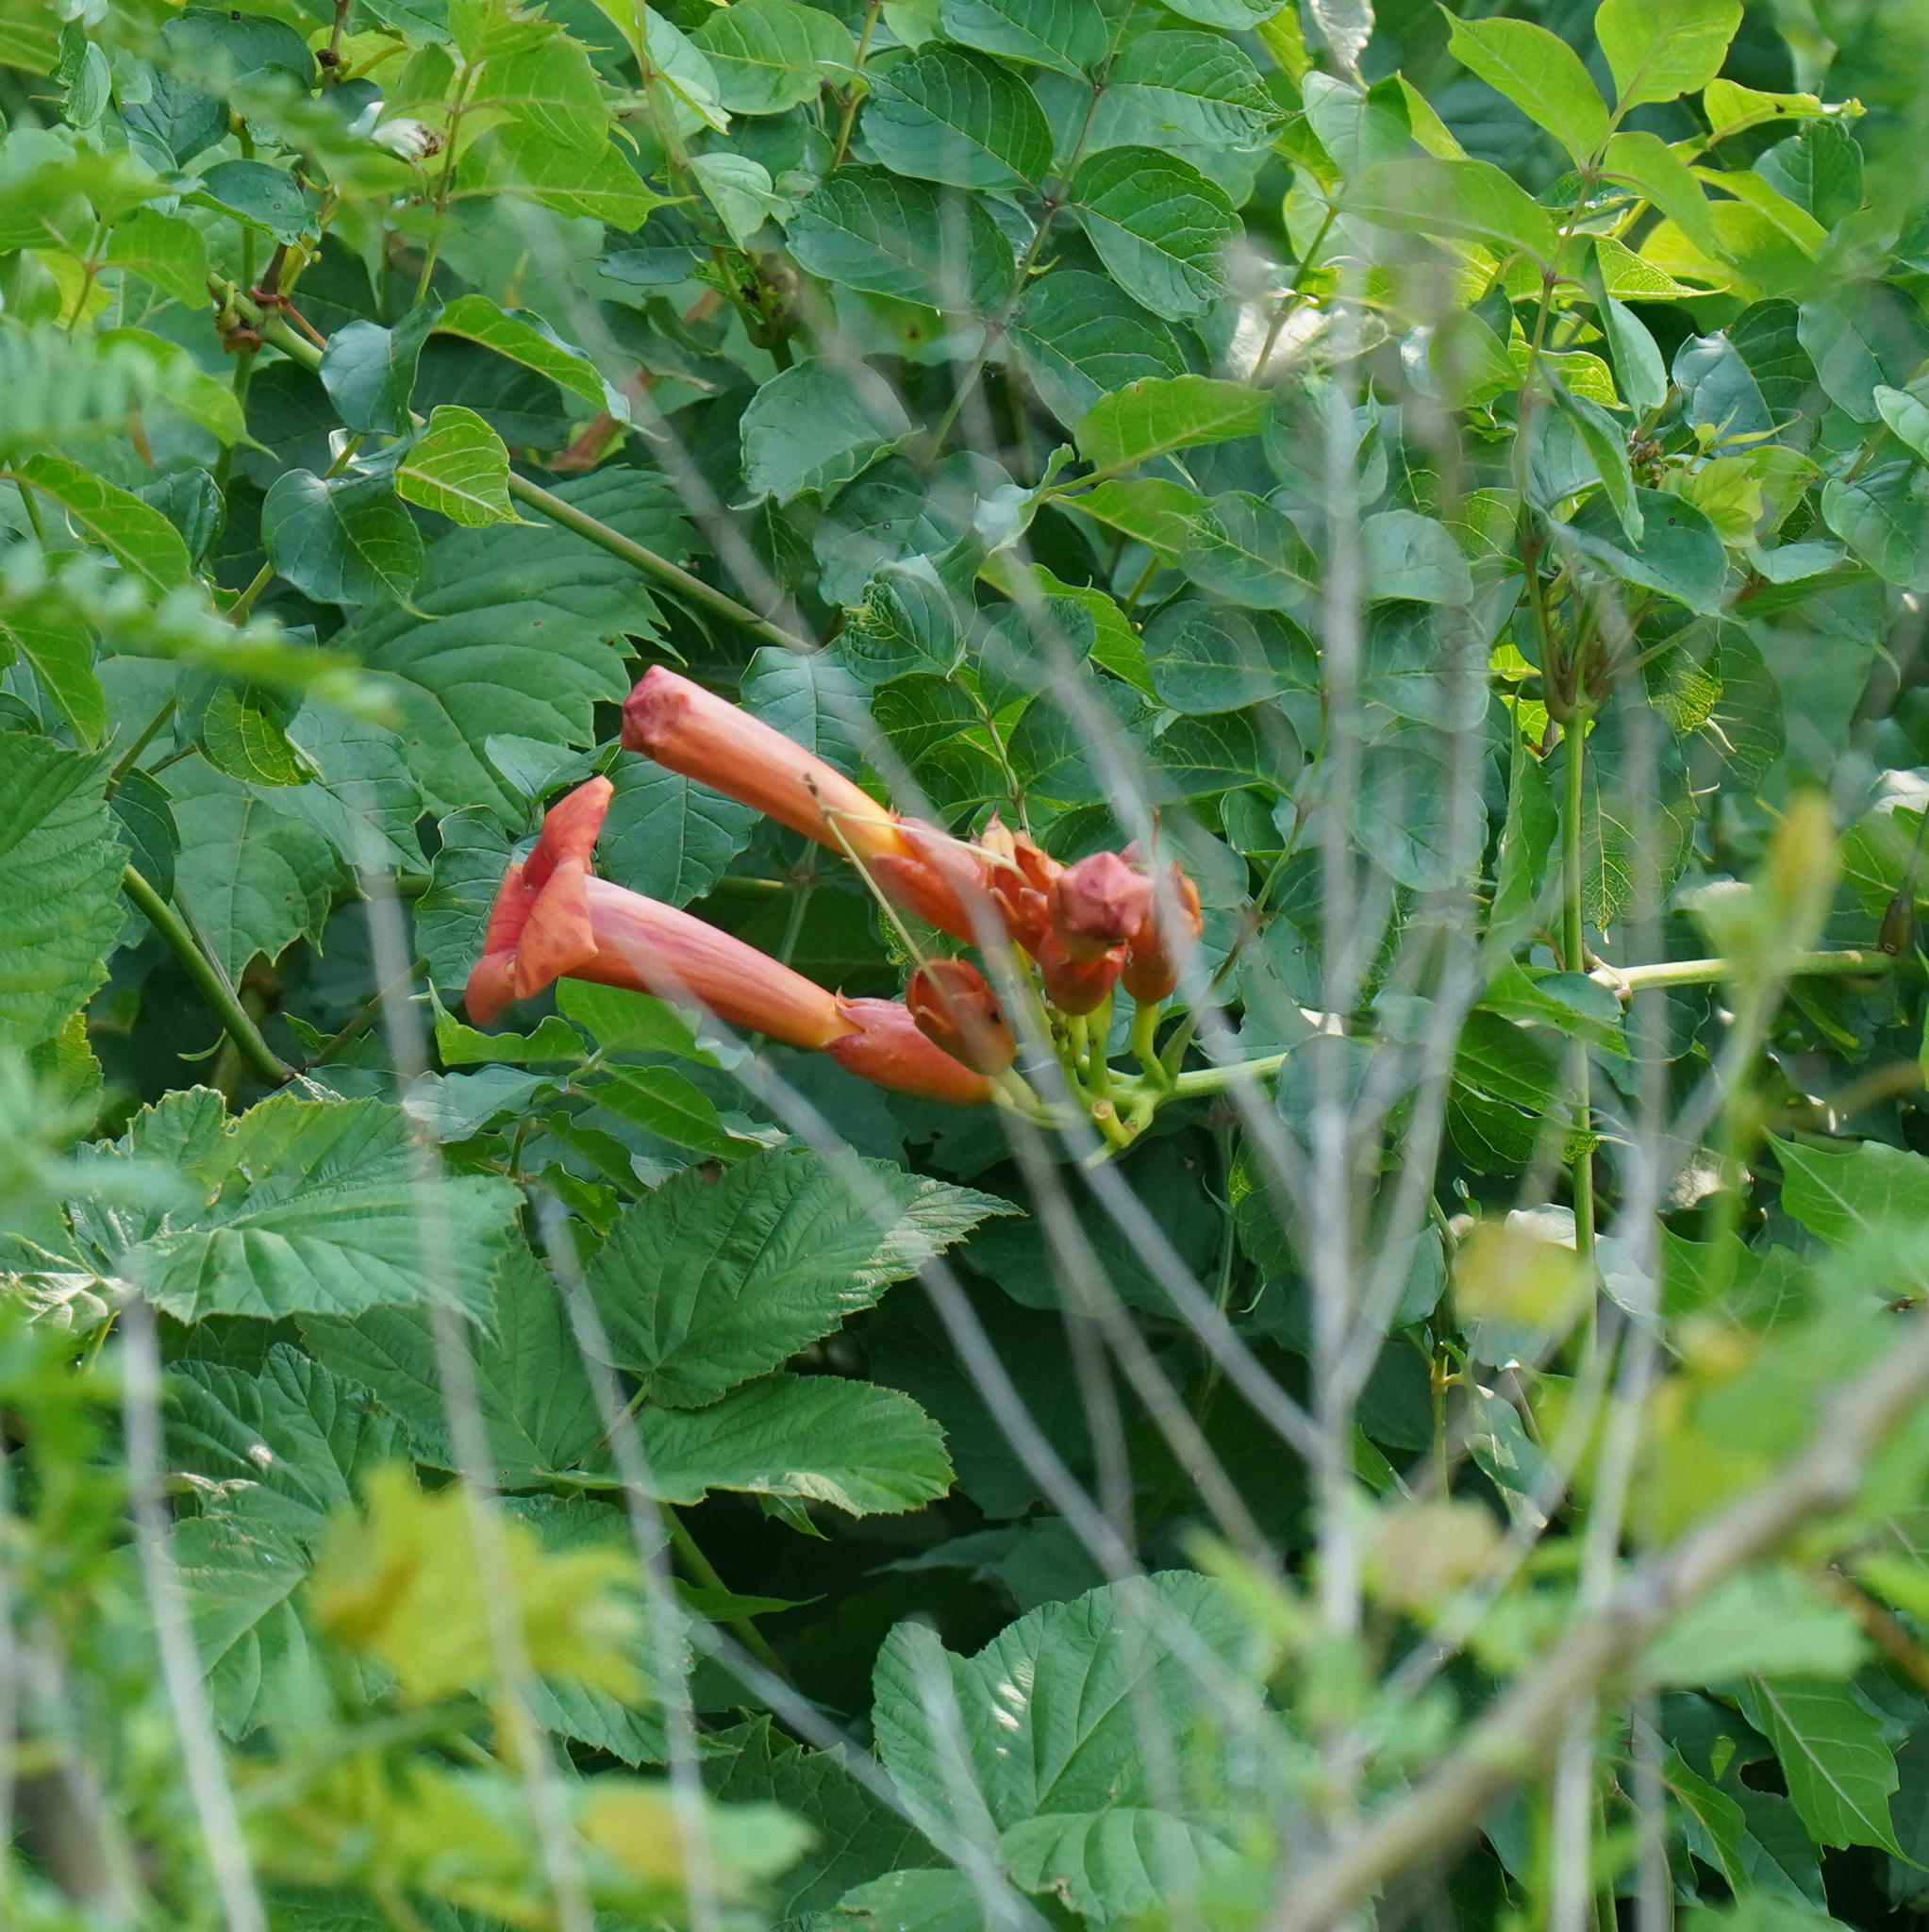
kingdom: Plantae
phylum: Tracheophyta
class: Magnoliopsida
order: Lamiales
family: Bignoniaceae
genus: Campsis
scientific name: Campsis radicans
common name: Trumpet-creeper
